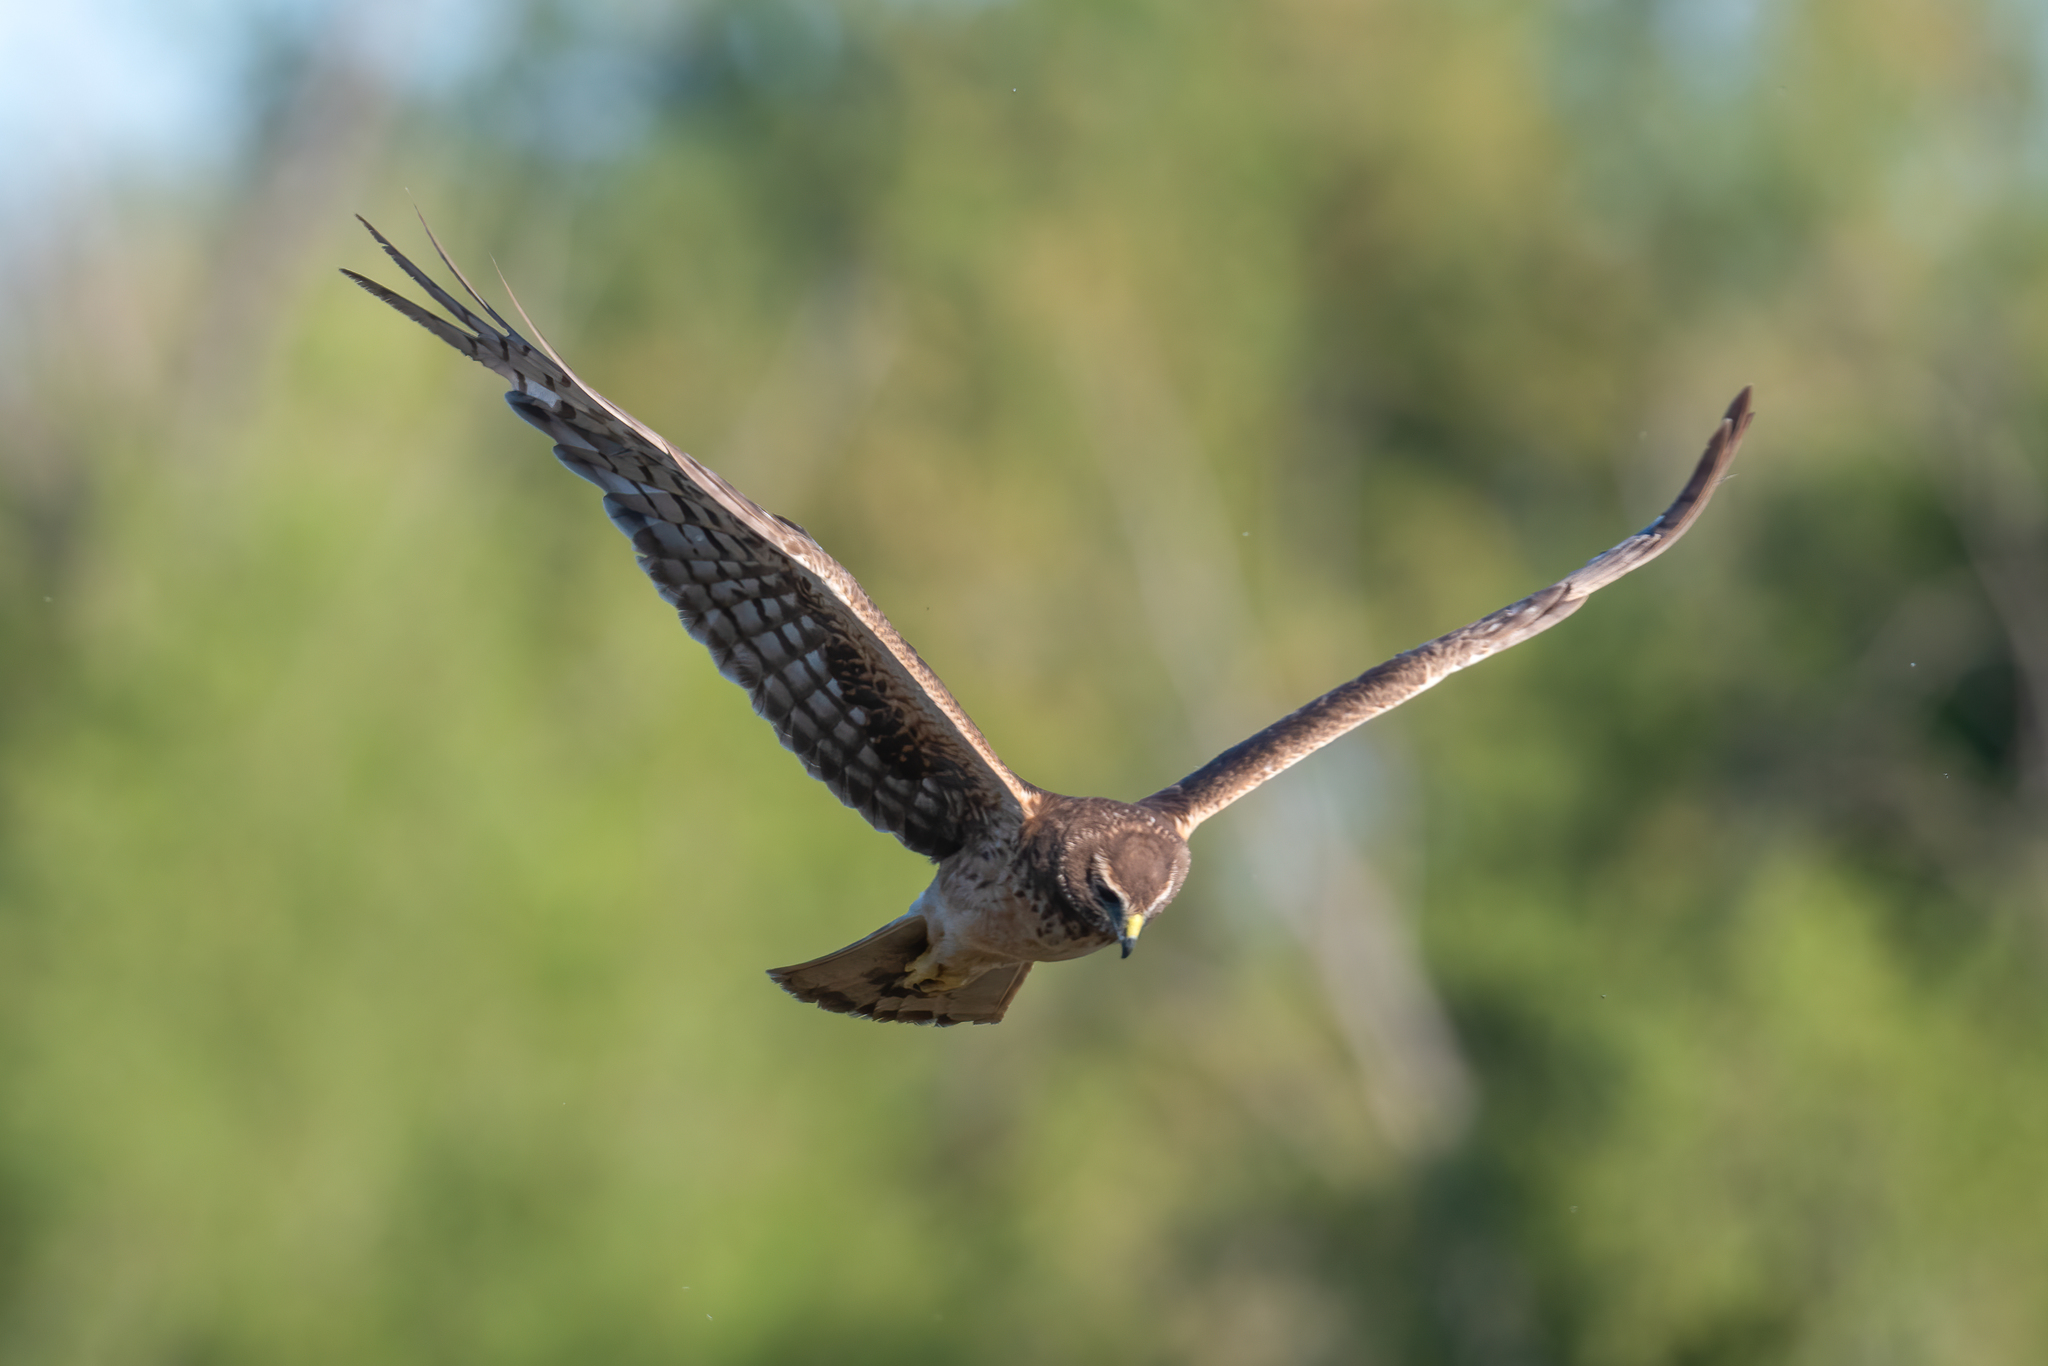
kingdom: Animalia
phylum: Chordata
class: Aves
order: Accipitriformes
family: Accipitridae
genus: Circus
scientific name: Circus cyaneus
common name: Hen harrier
